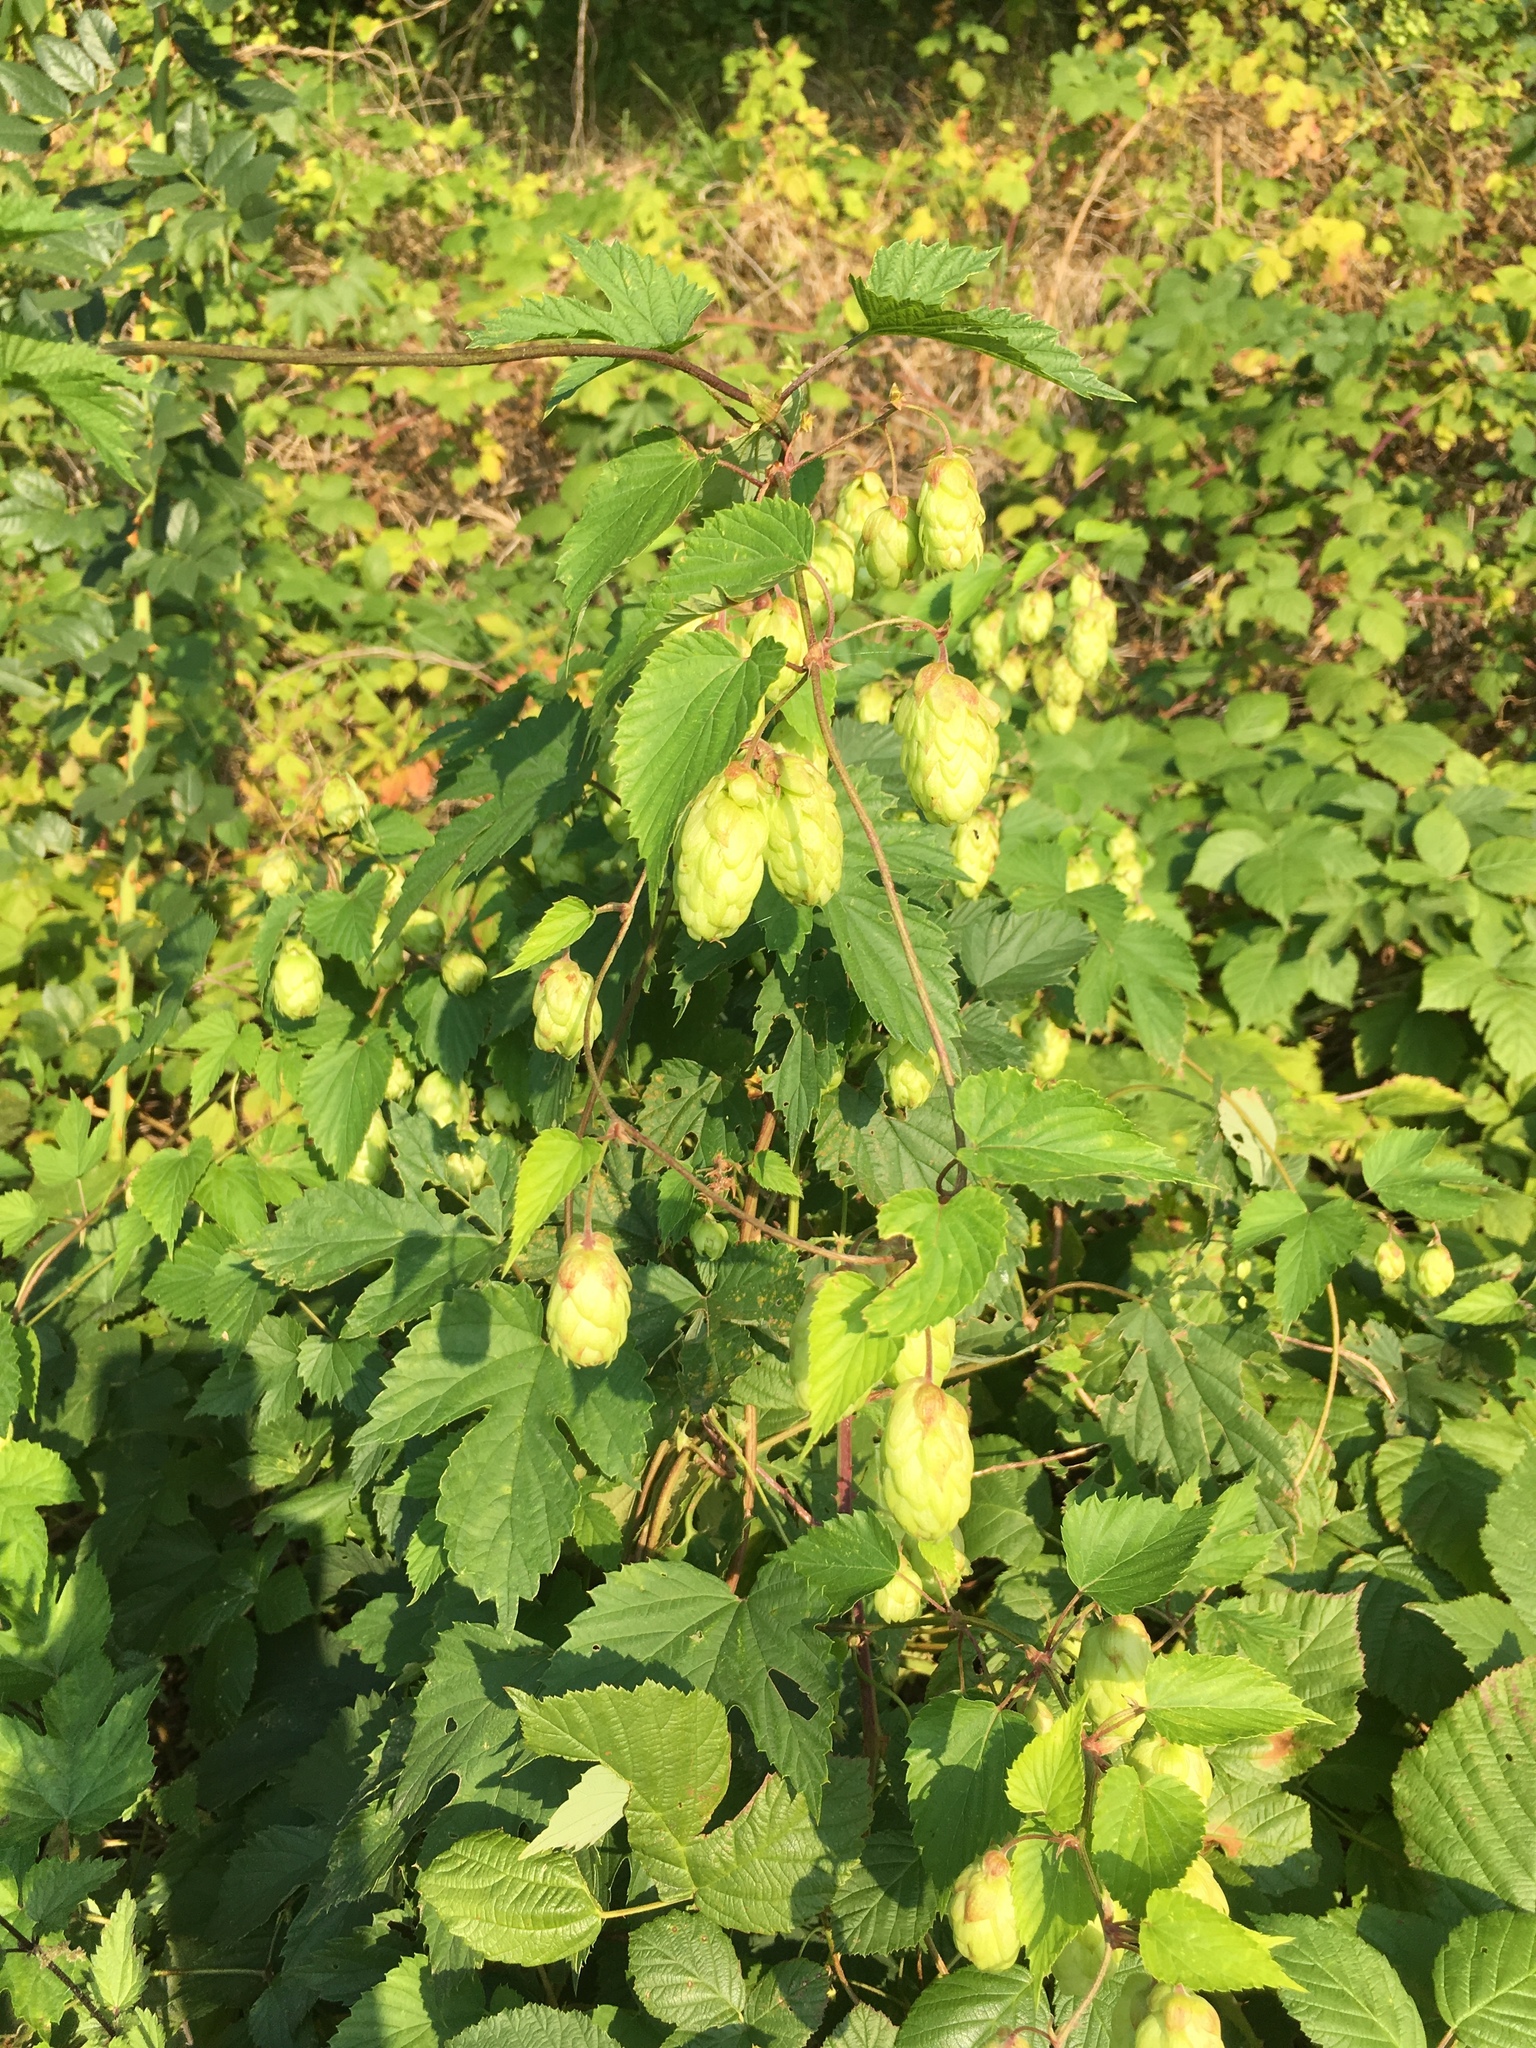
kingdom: Plantae
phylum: Tracheophyta
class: Magnoliopsida
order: Rosales
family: Cannabaceae
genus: Humulus
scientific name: Humulus lupulus
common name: Hop
